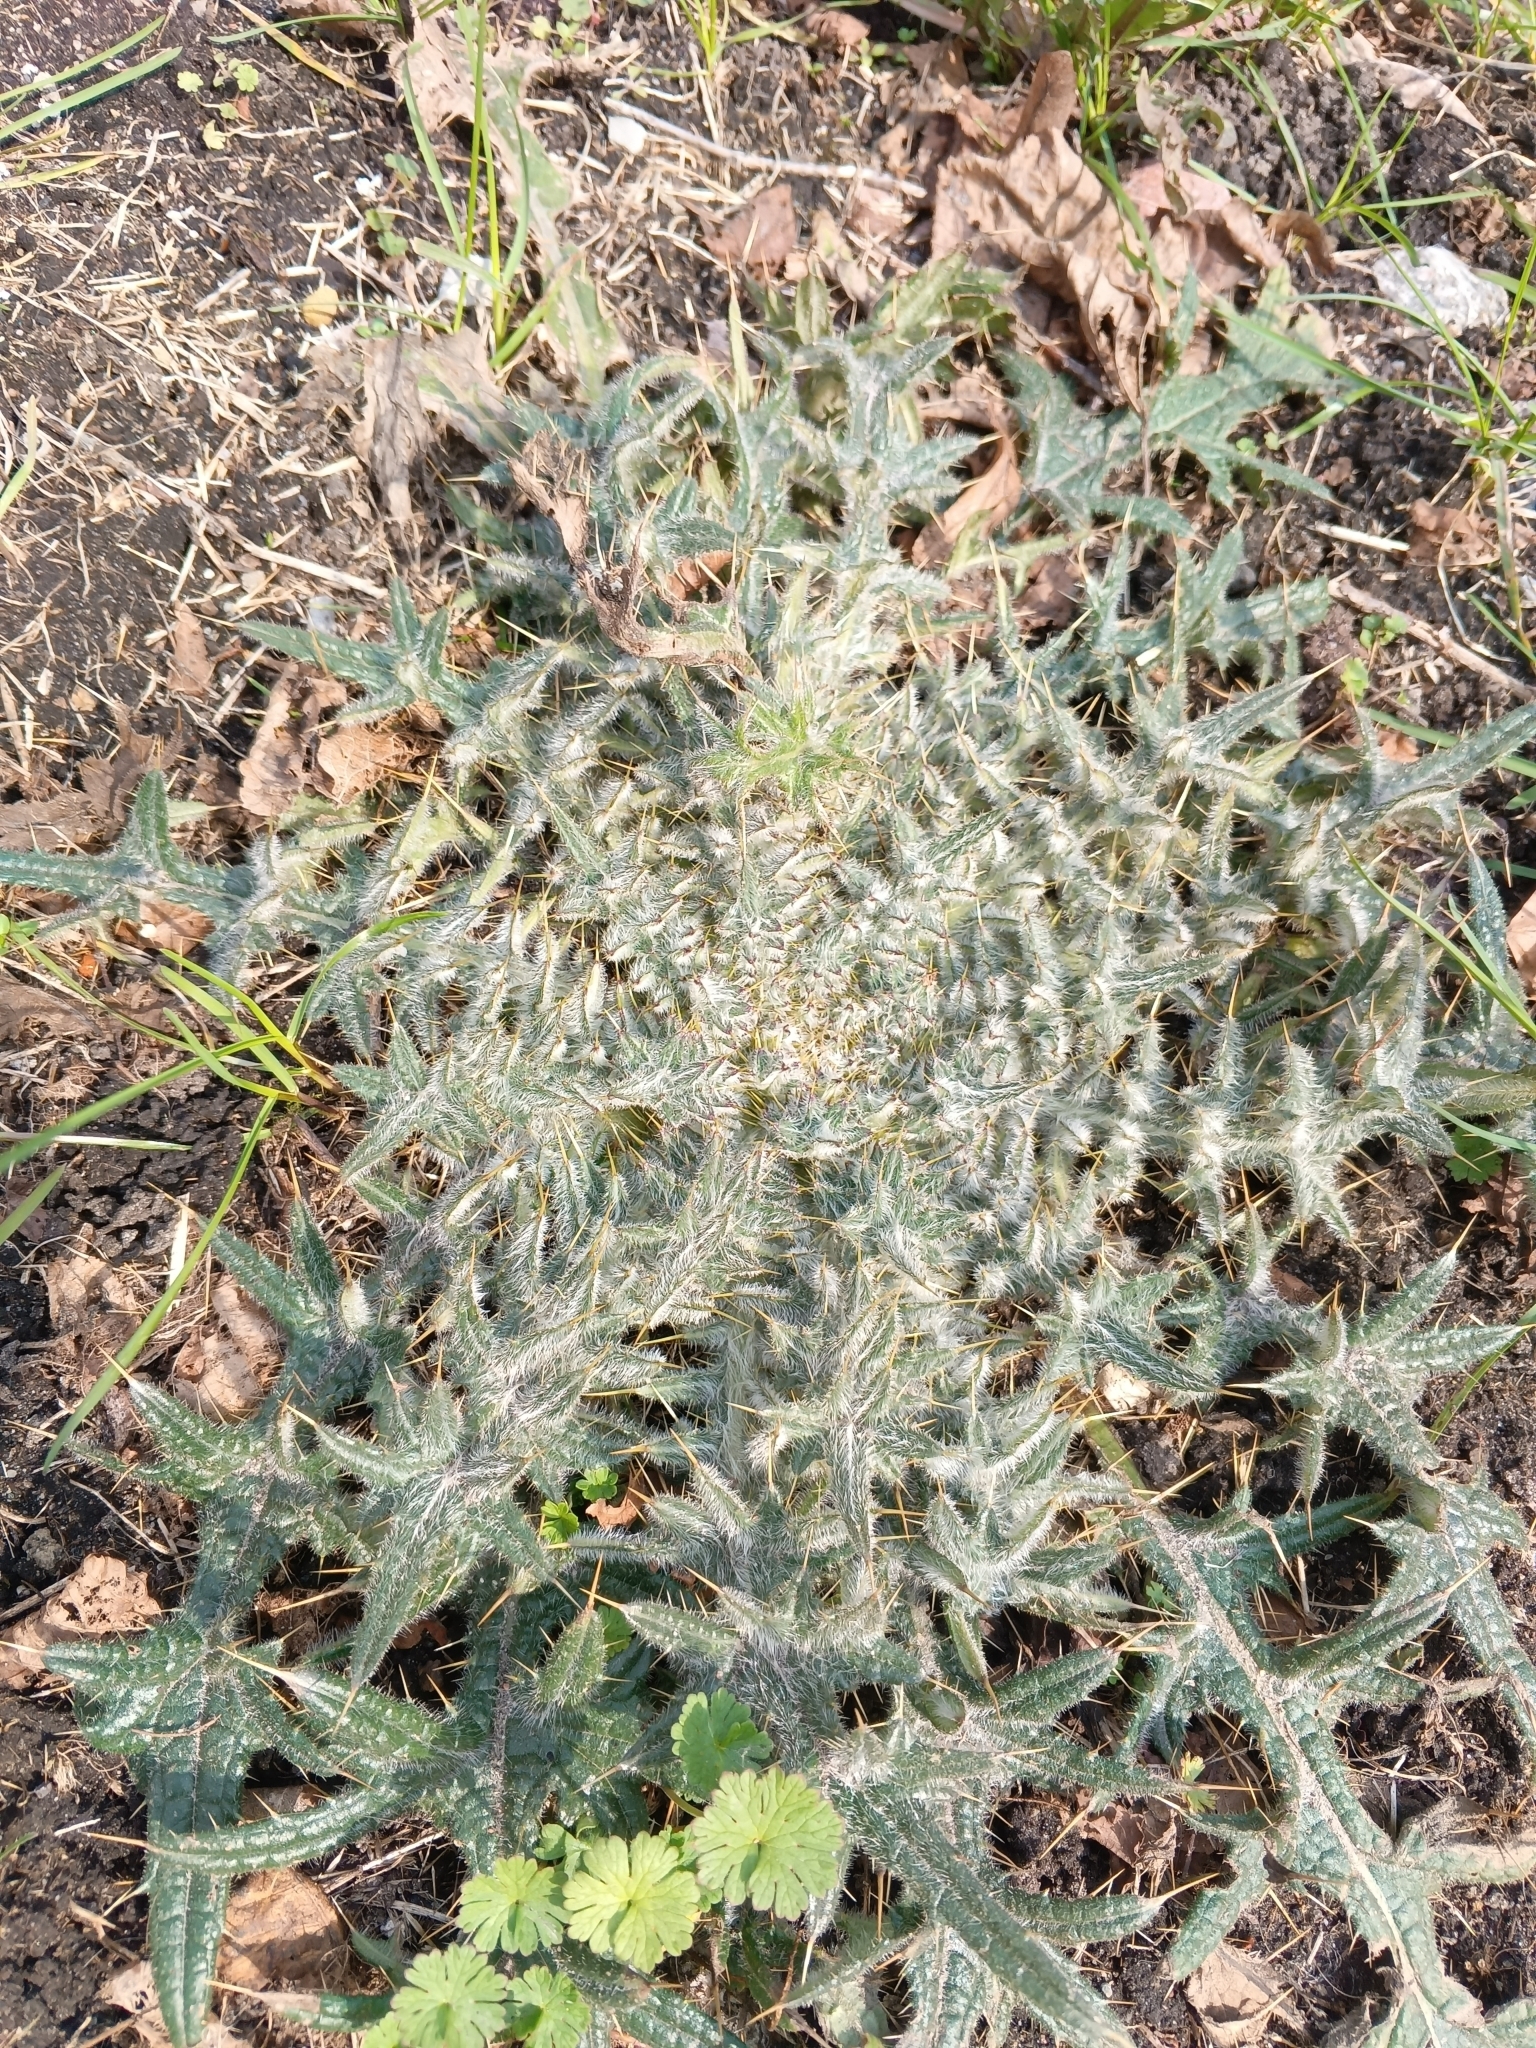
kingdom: Plantae
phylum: Tracheophyta
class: Magnoliopsida
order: Asterales
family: Asteraceae
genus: Cirsium
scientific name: Cirsium vulgare
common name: Bull thistle
